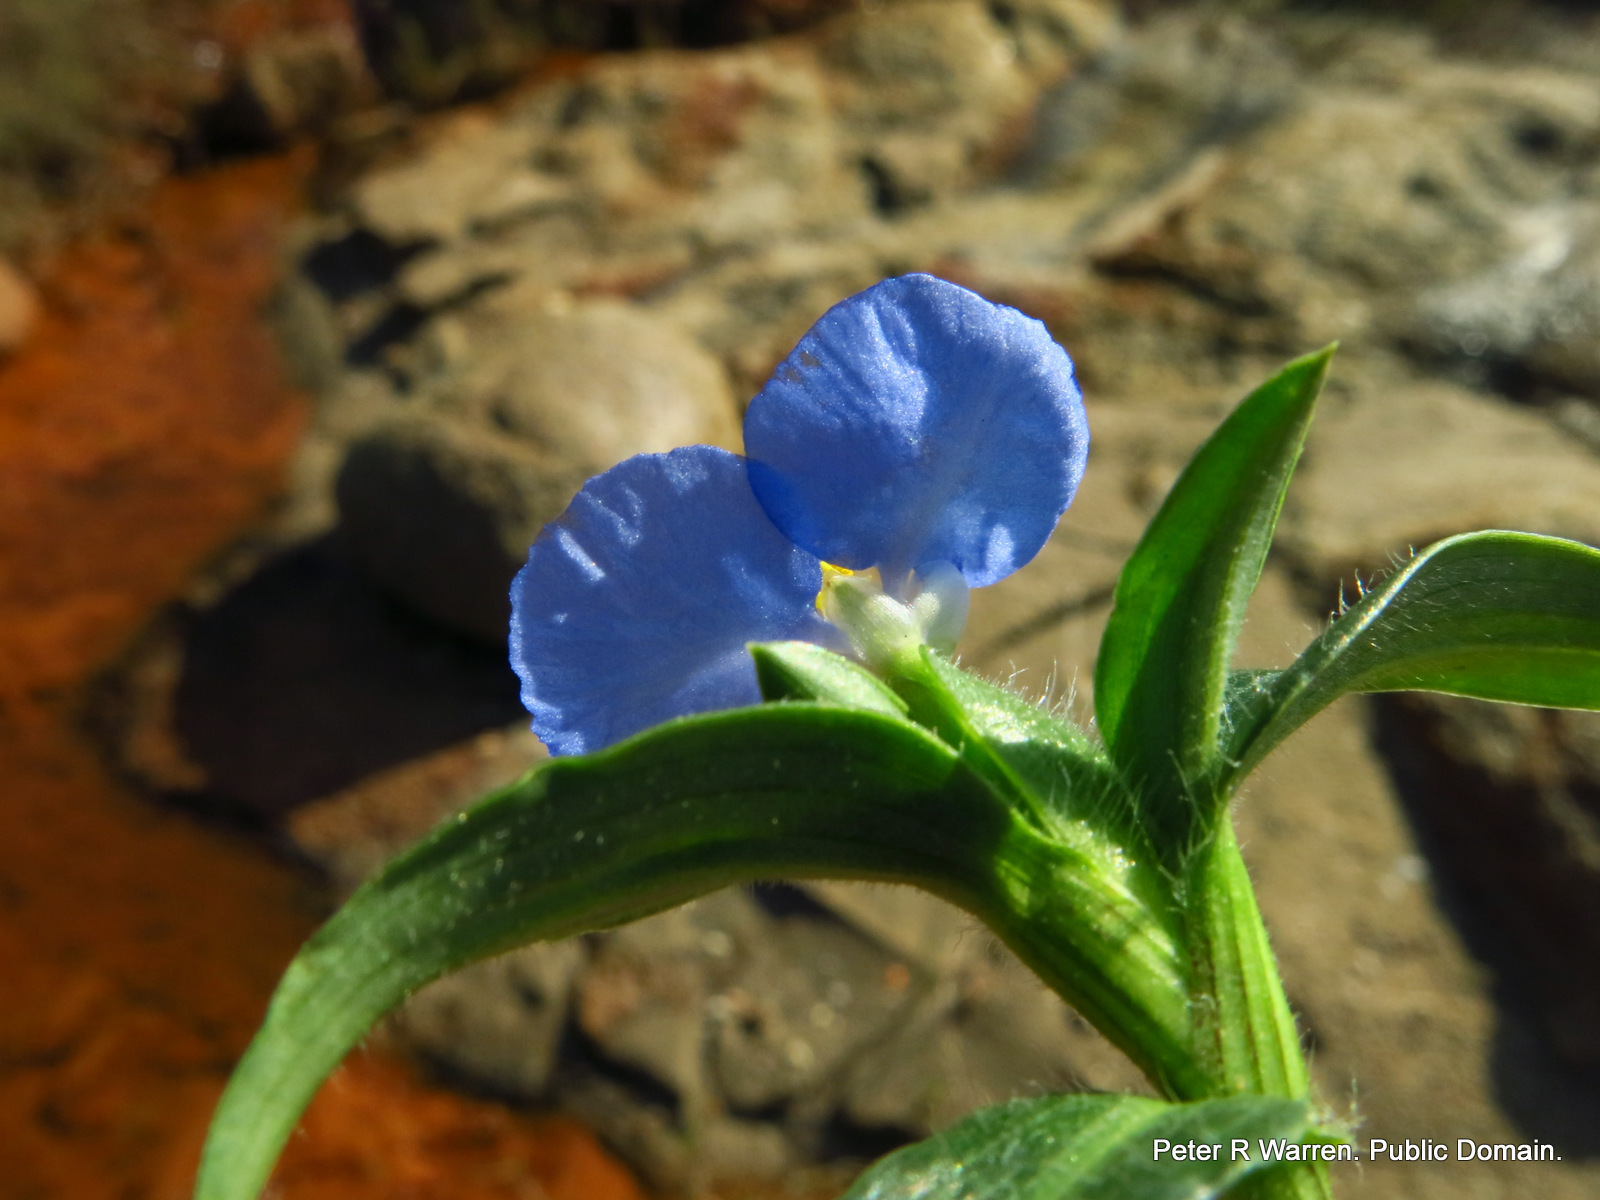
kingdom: Plantae
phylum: Tracheophyta
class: Liliopsida
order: Commelinales
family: Commelinaceae
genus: Commelina
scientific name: Commelina diffusa
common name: Climbing dayflower
